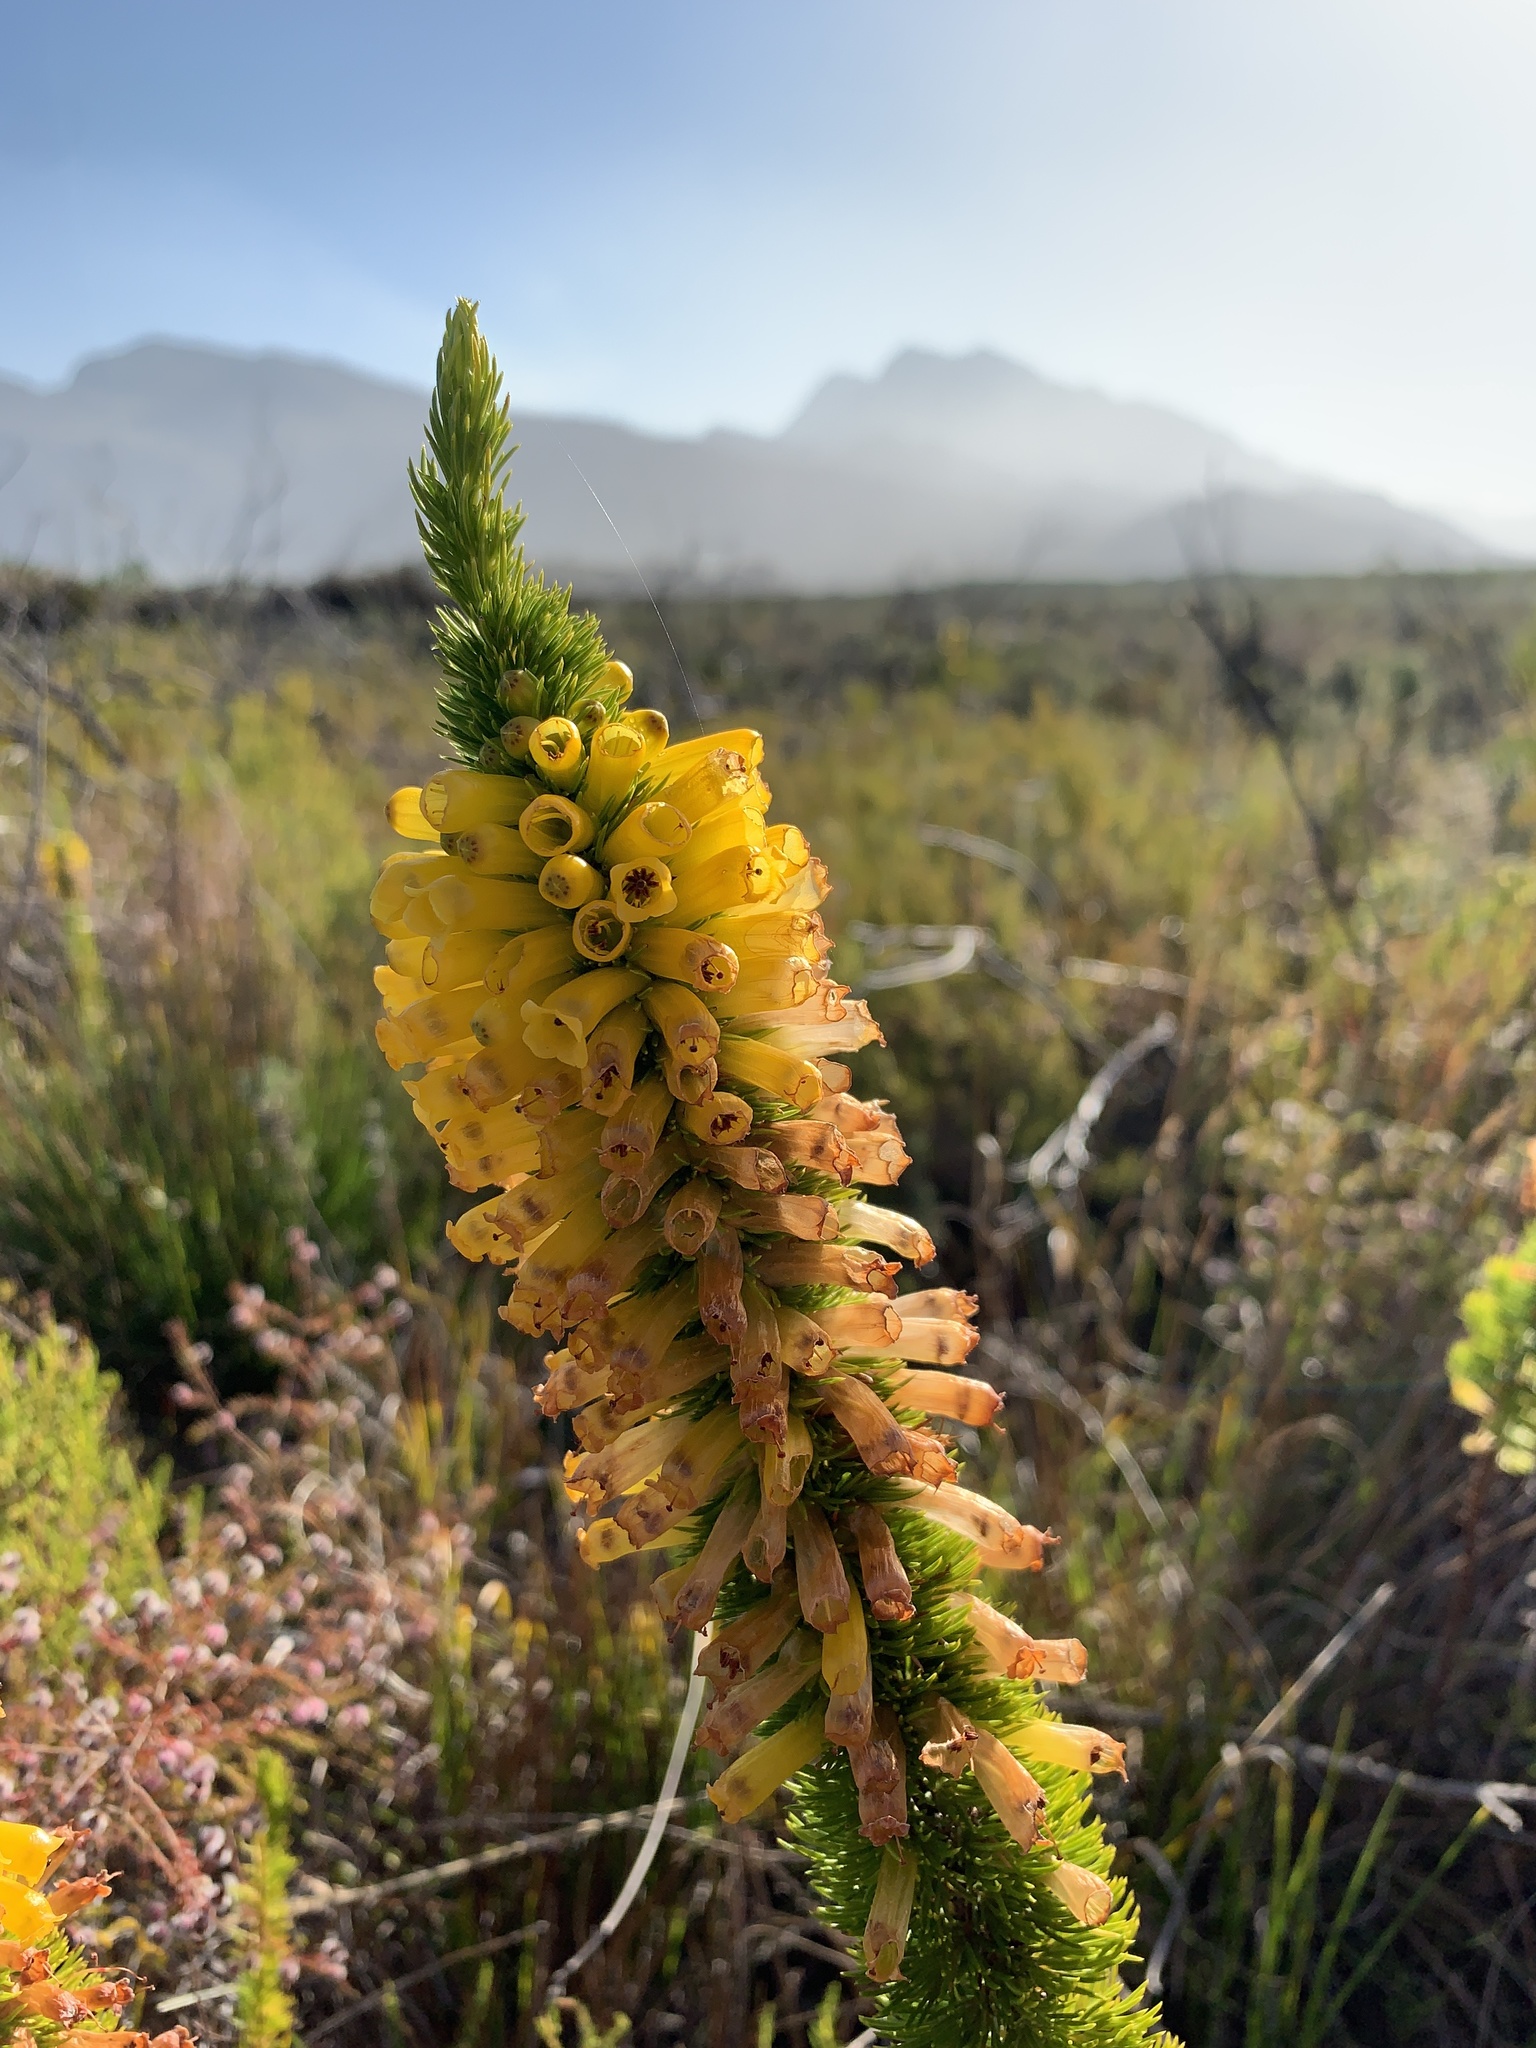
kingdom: Plantae
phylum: Tracheophyta
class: Magnoliopsida
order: Ericales
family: Ericaceae
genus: Erica
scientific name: Erica patersonia
